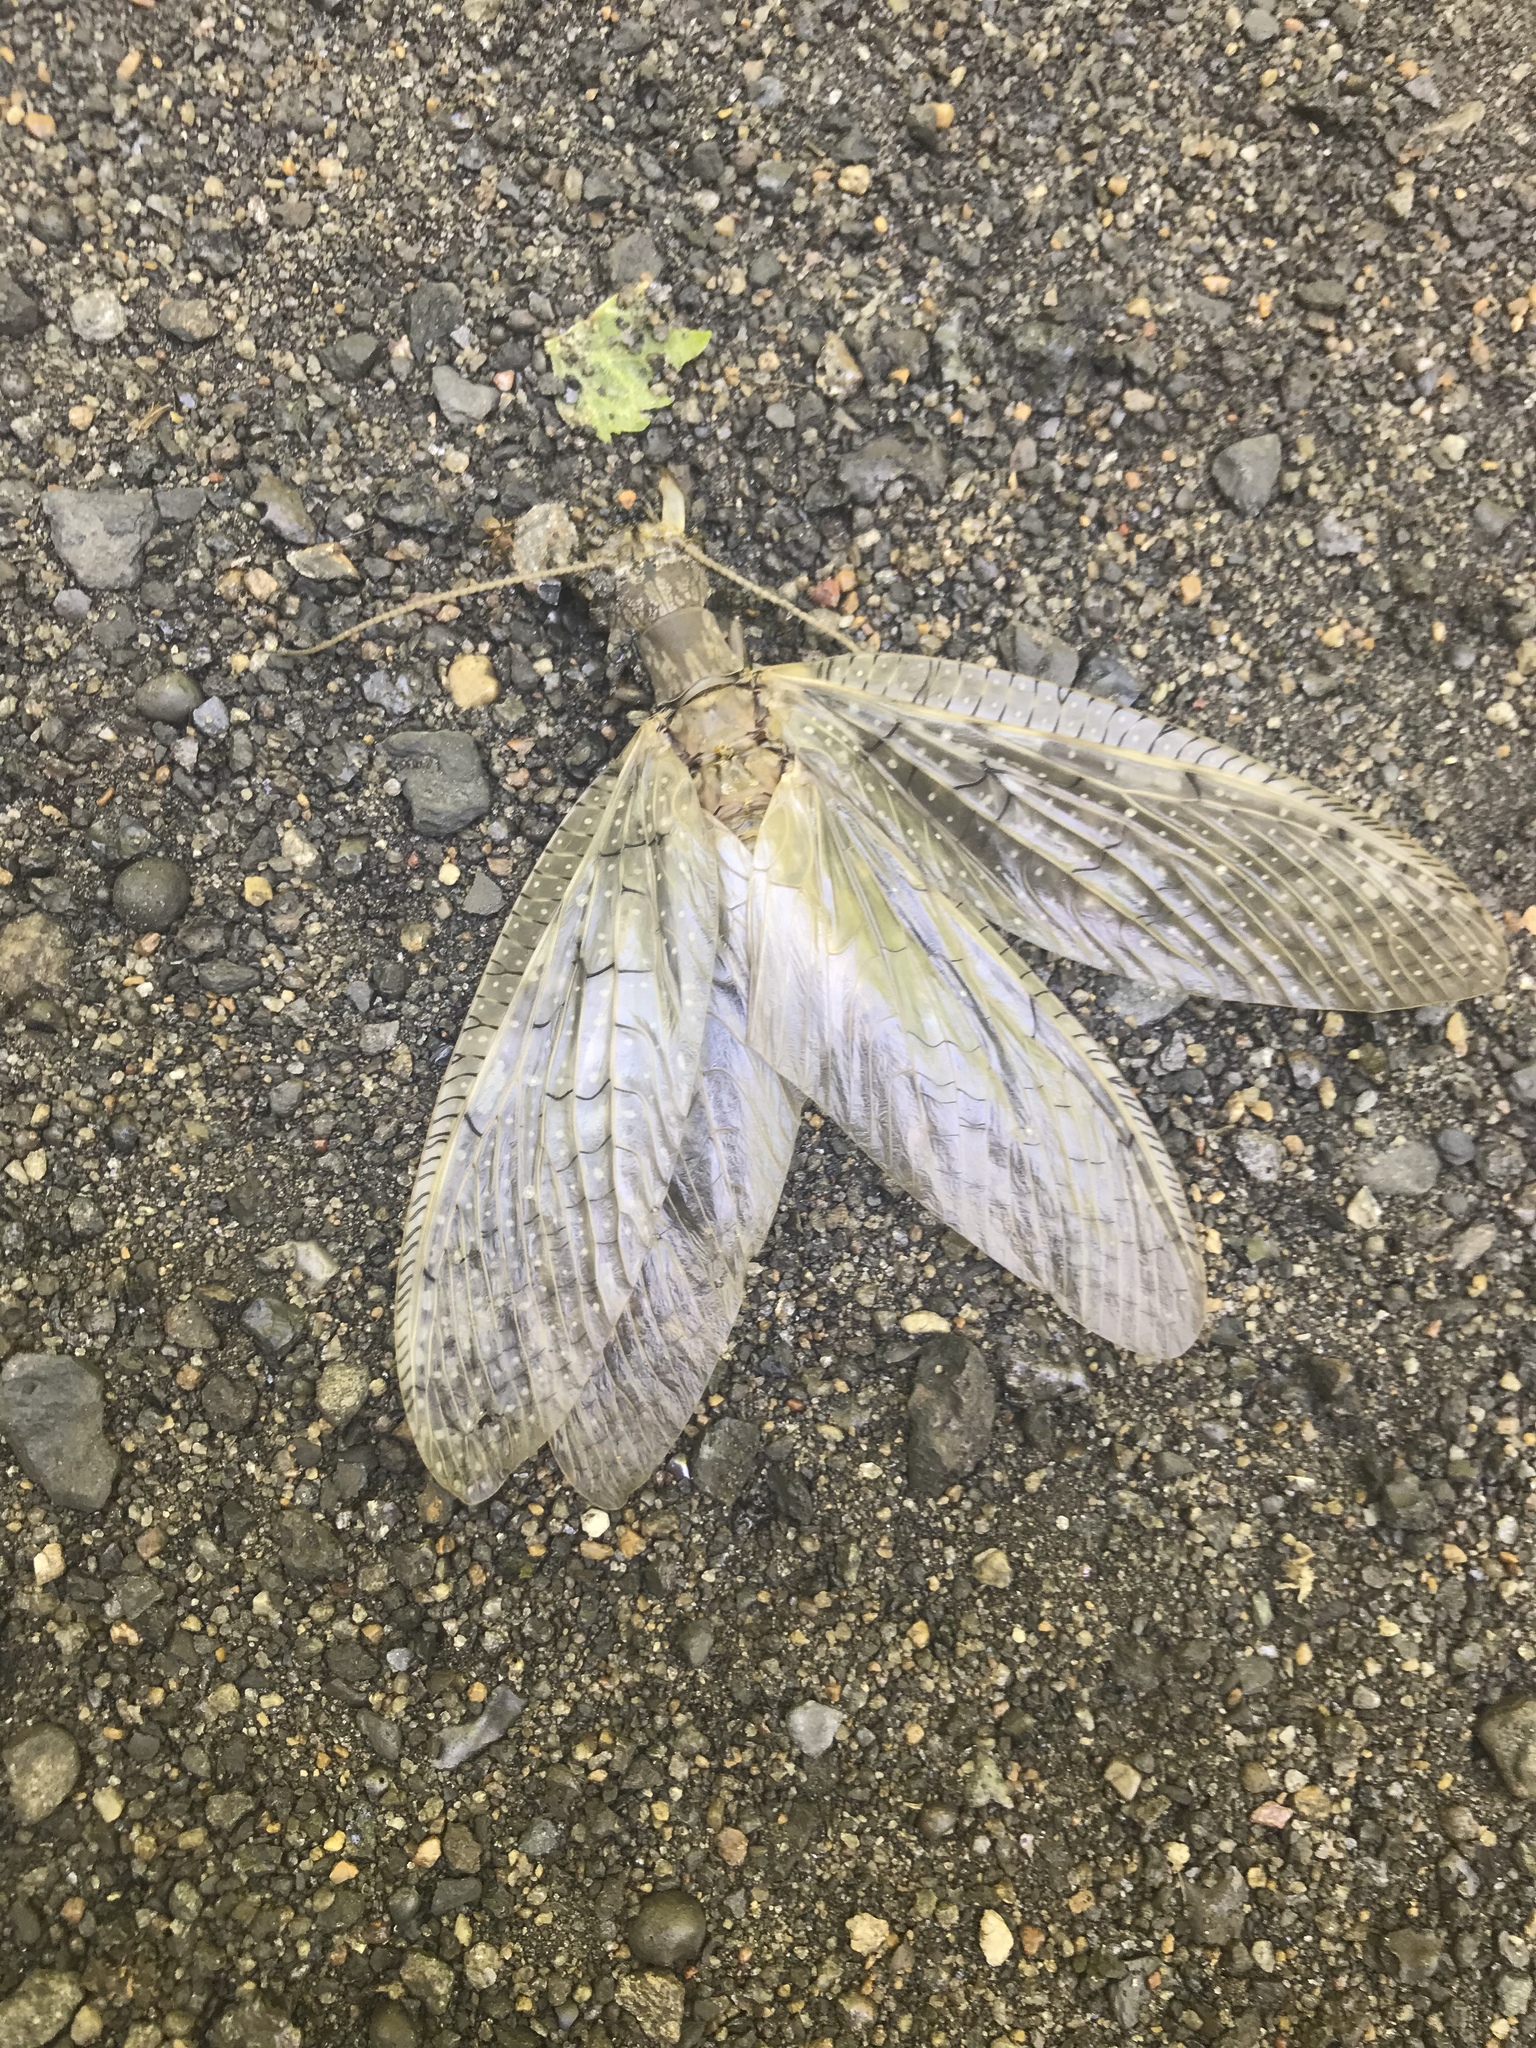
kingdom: Animalia
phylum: Arthropoda
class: Insecta
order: Megaloptera
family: Corydalidae
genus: Corydalus
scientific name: Corydalus cornutus
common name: Dobsonfly
